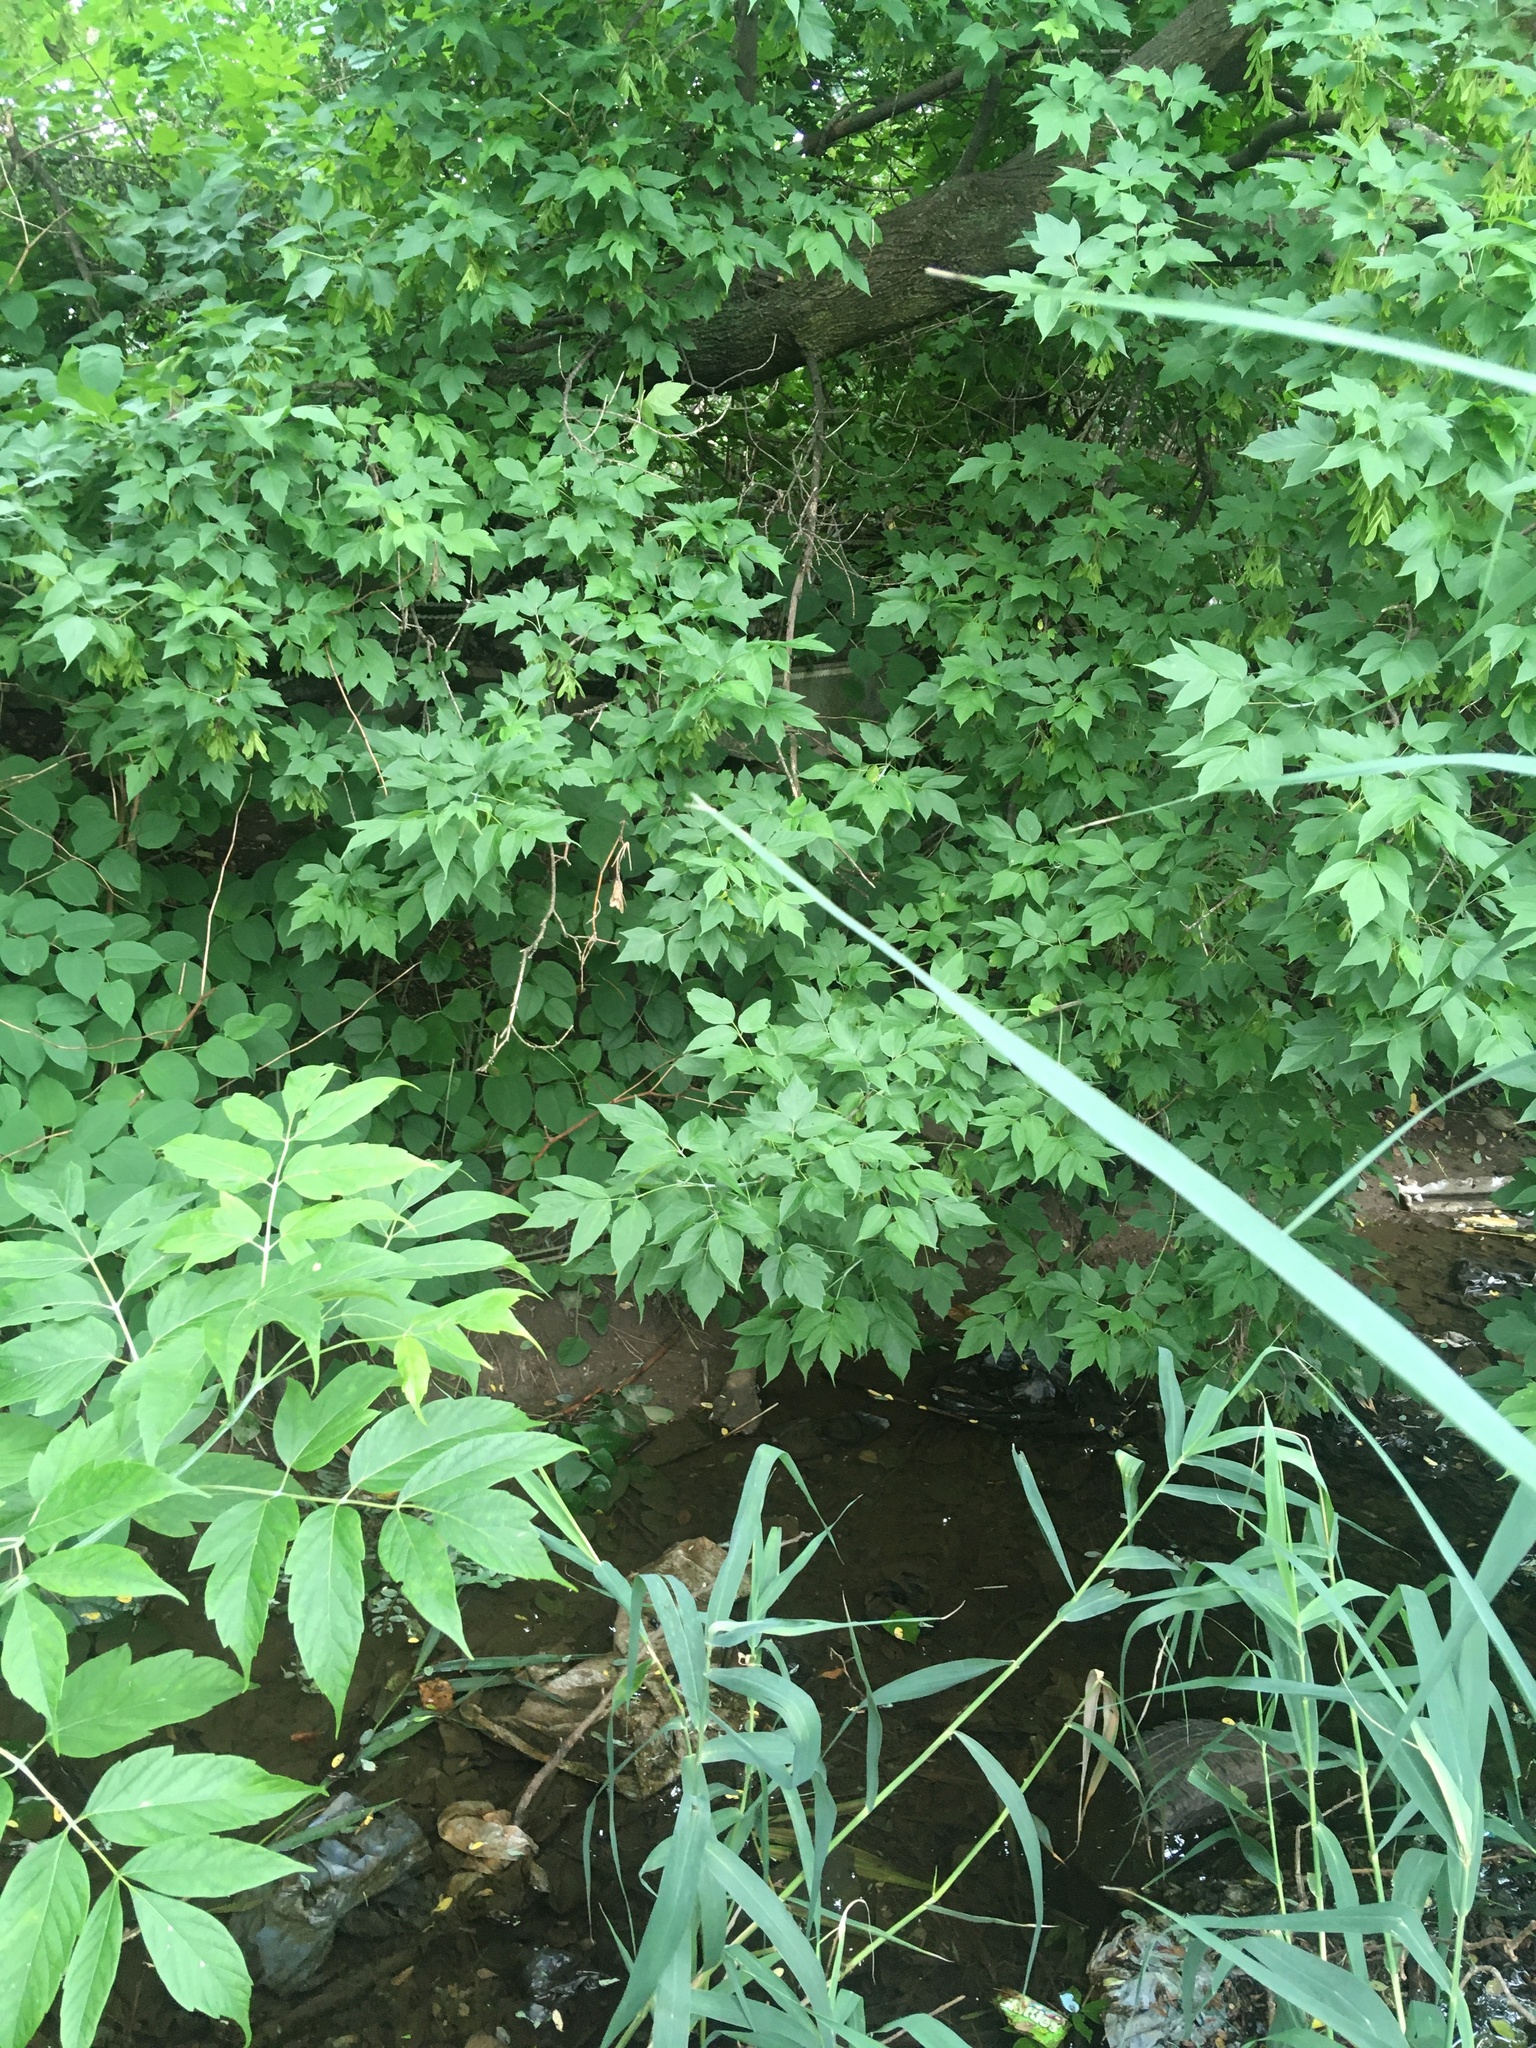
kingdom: Plantae
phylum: Tracheophyta
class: Magnoliopsida
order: Sapindales
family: Sapindaceae
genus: Acer
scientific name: Acer negundo
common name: Ashleaf maple
